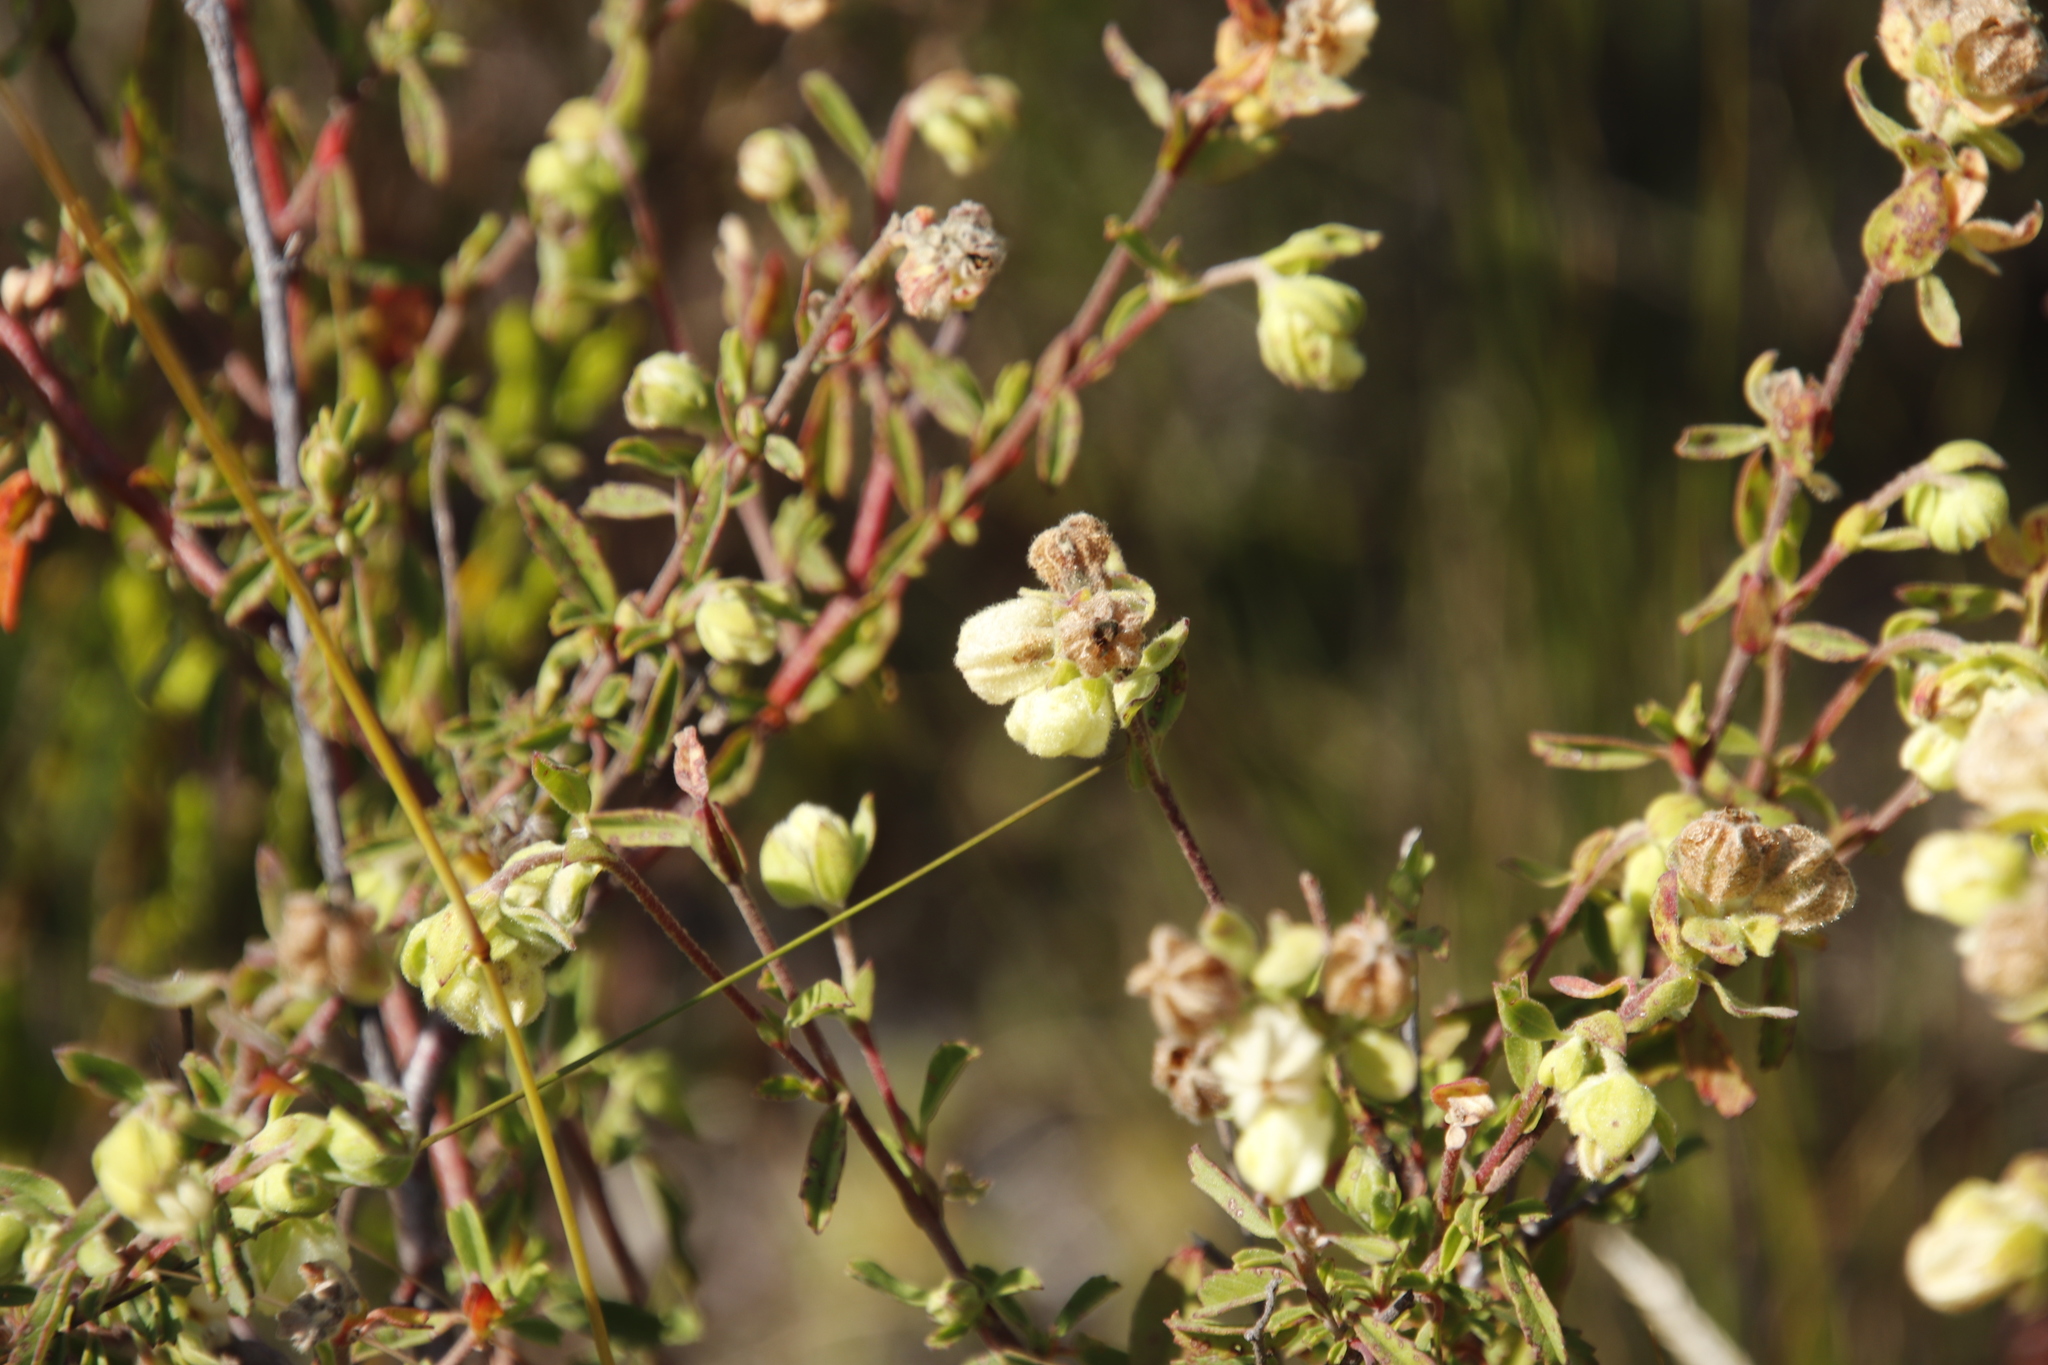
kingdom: Plantae
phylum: Tracheophyta
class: Magnoliopsida
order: Malvales
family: Malvaceae
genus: Hermannia
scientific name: Hermannia hyssopifolia
